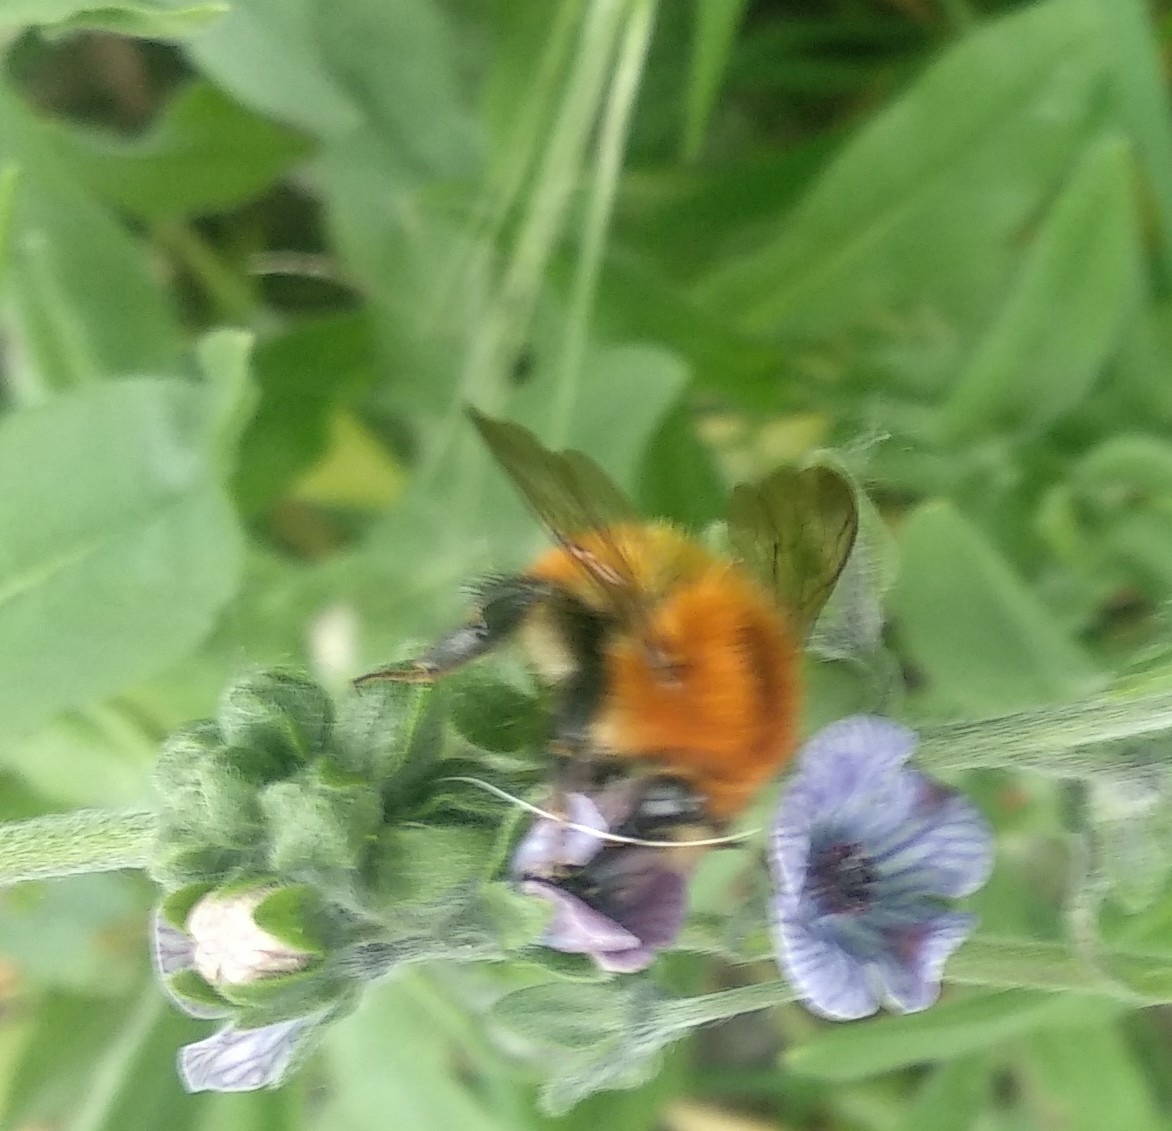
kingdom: Animalia
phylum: Arthropoda
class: Insecta
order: Hymenoptera
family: Apidae
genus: Bombus
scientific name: Bombus pascuorum
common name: Common carder bee
